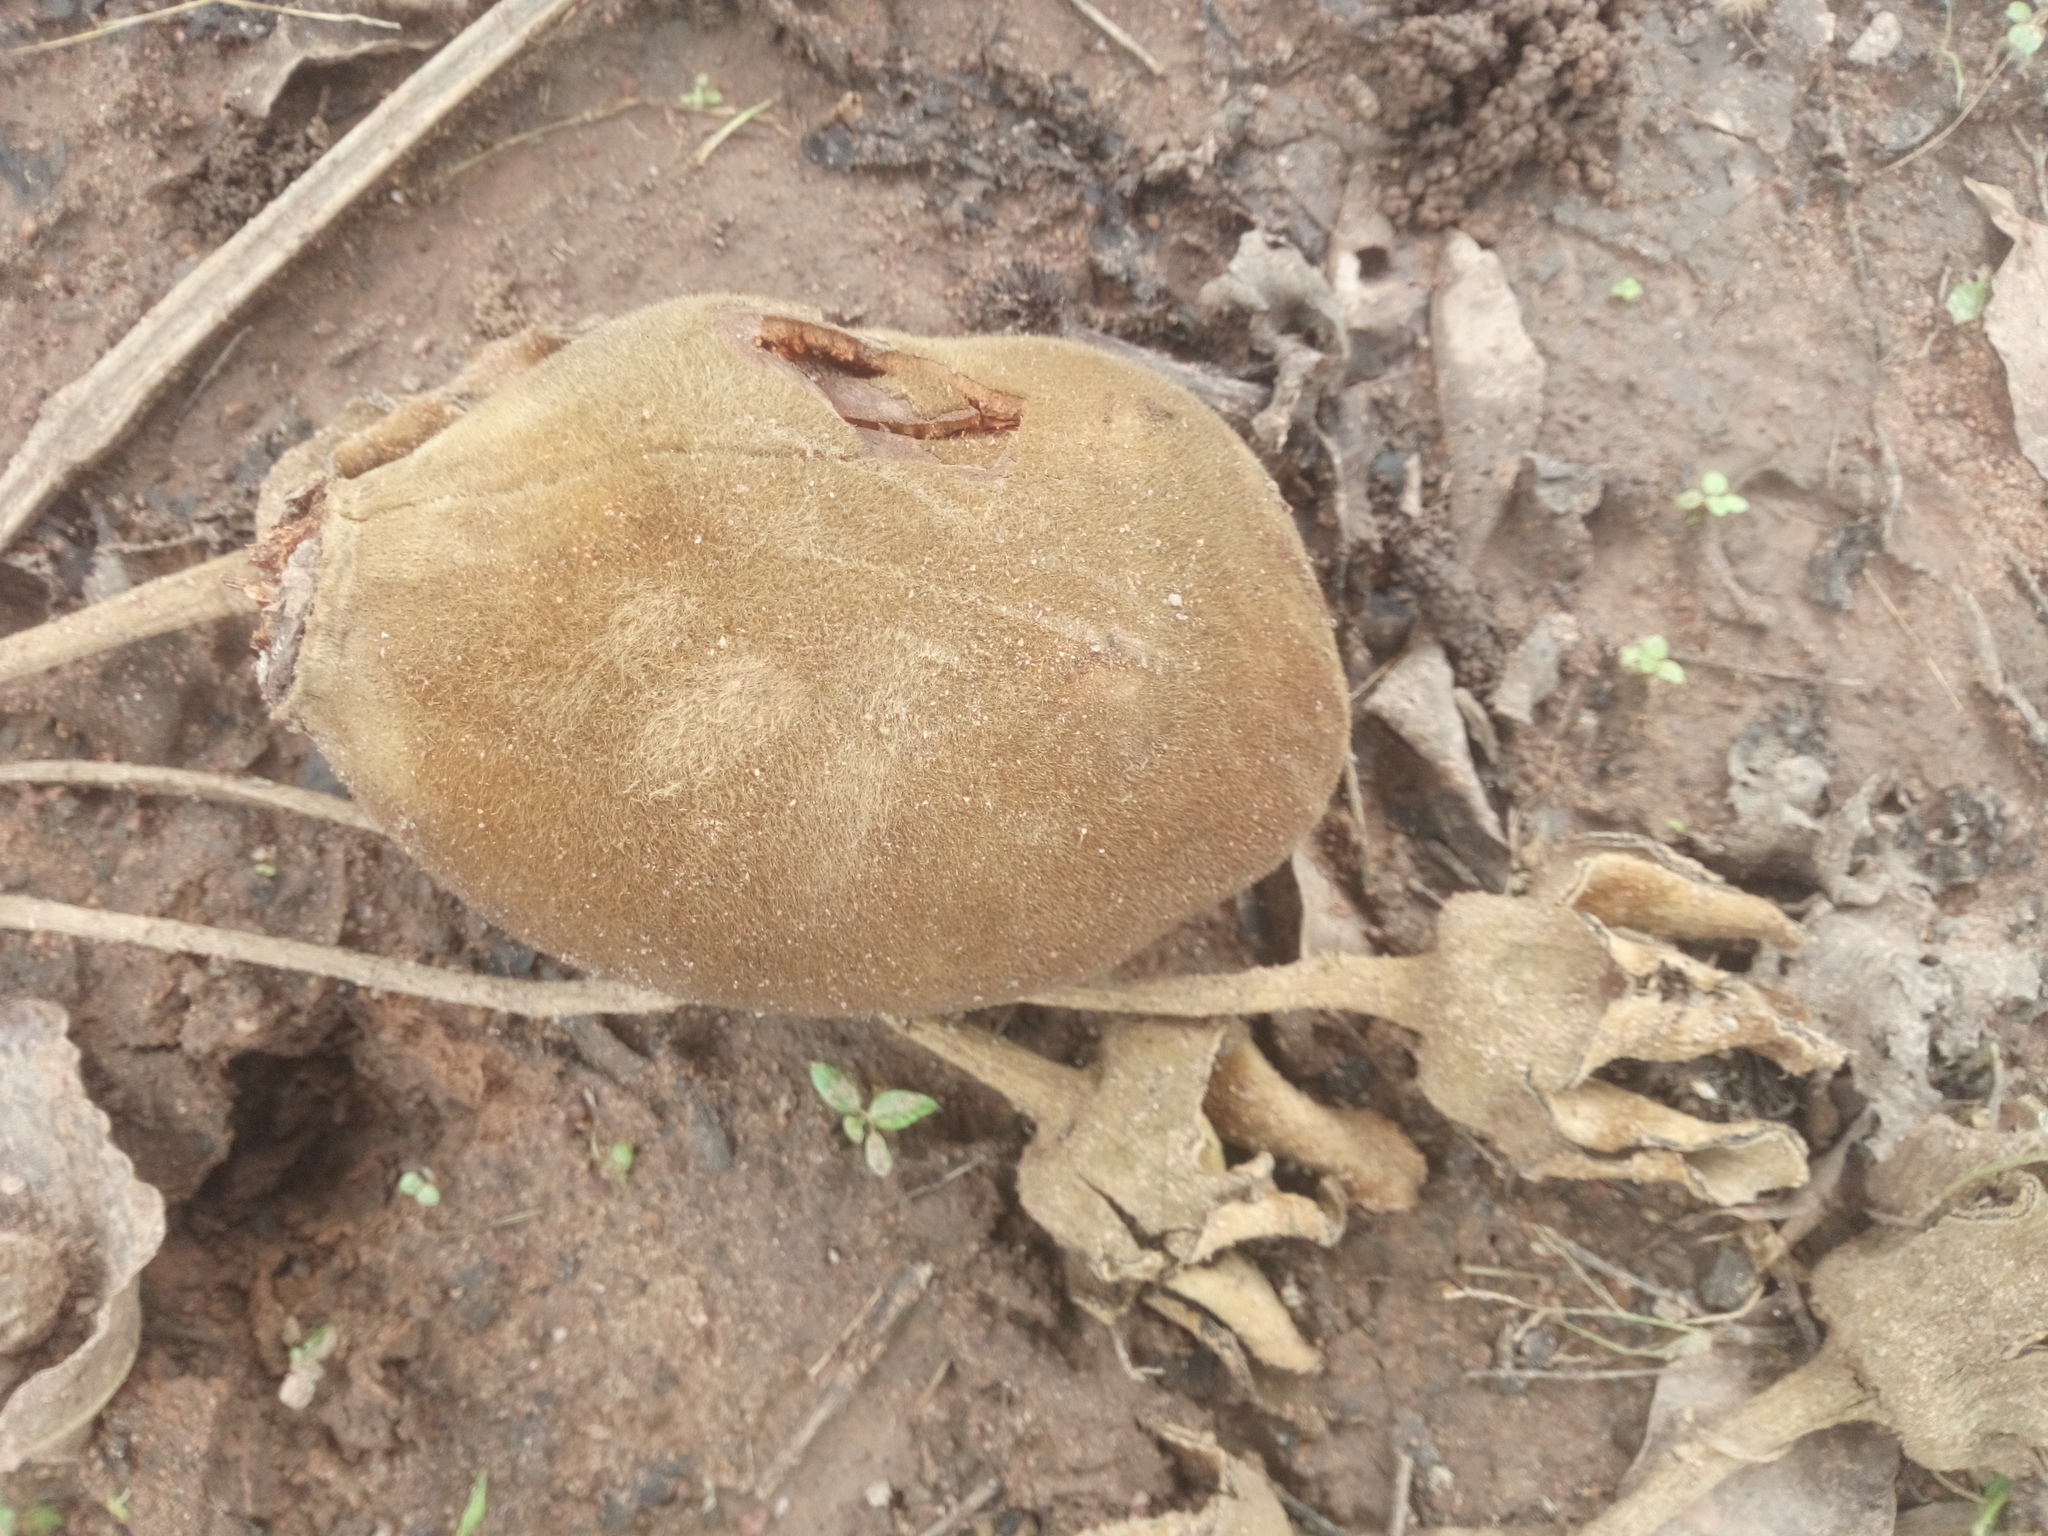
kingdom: Plantae
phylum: Tracheophyta
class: Magnoliopsida
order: Malvales
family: Malvaceae
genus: Adansonia
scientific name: Adansonia digitata
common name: Dead-rat-tree
